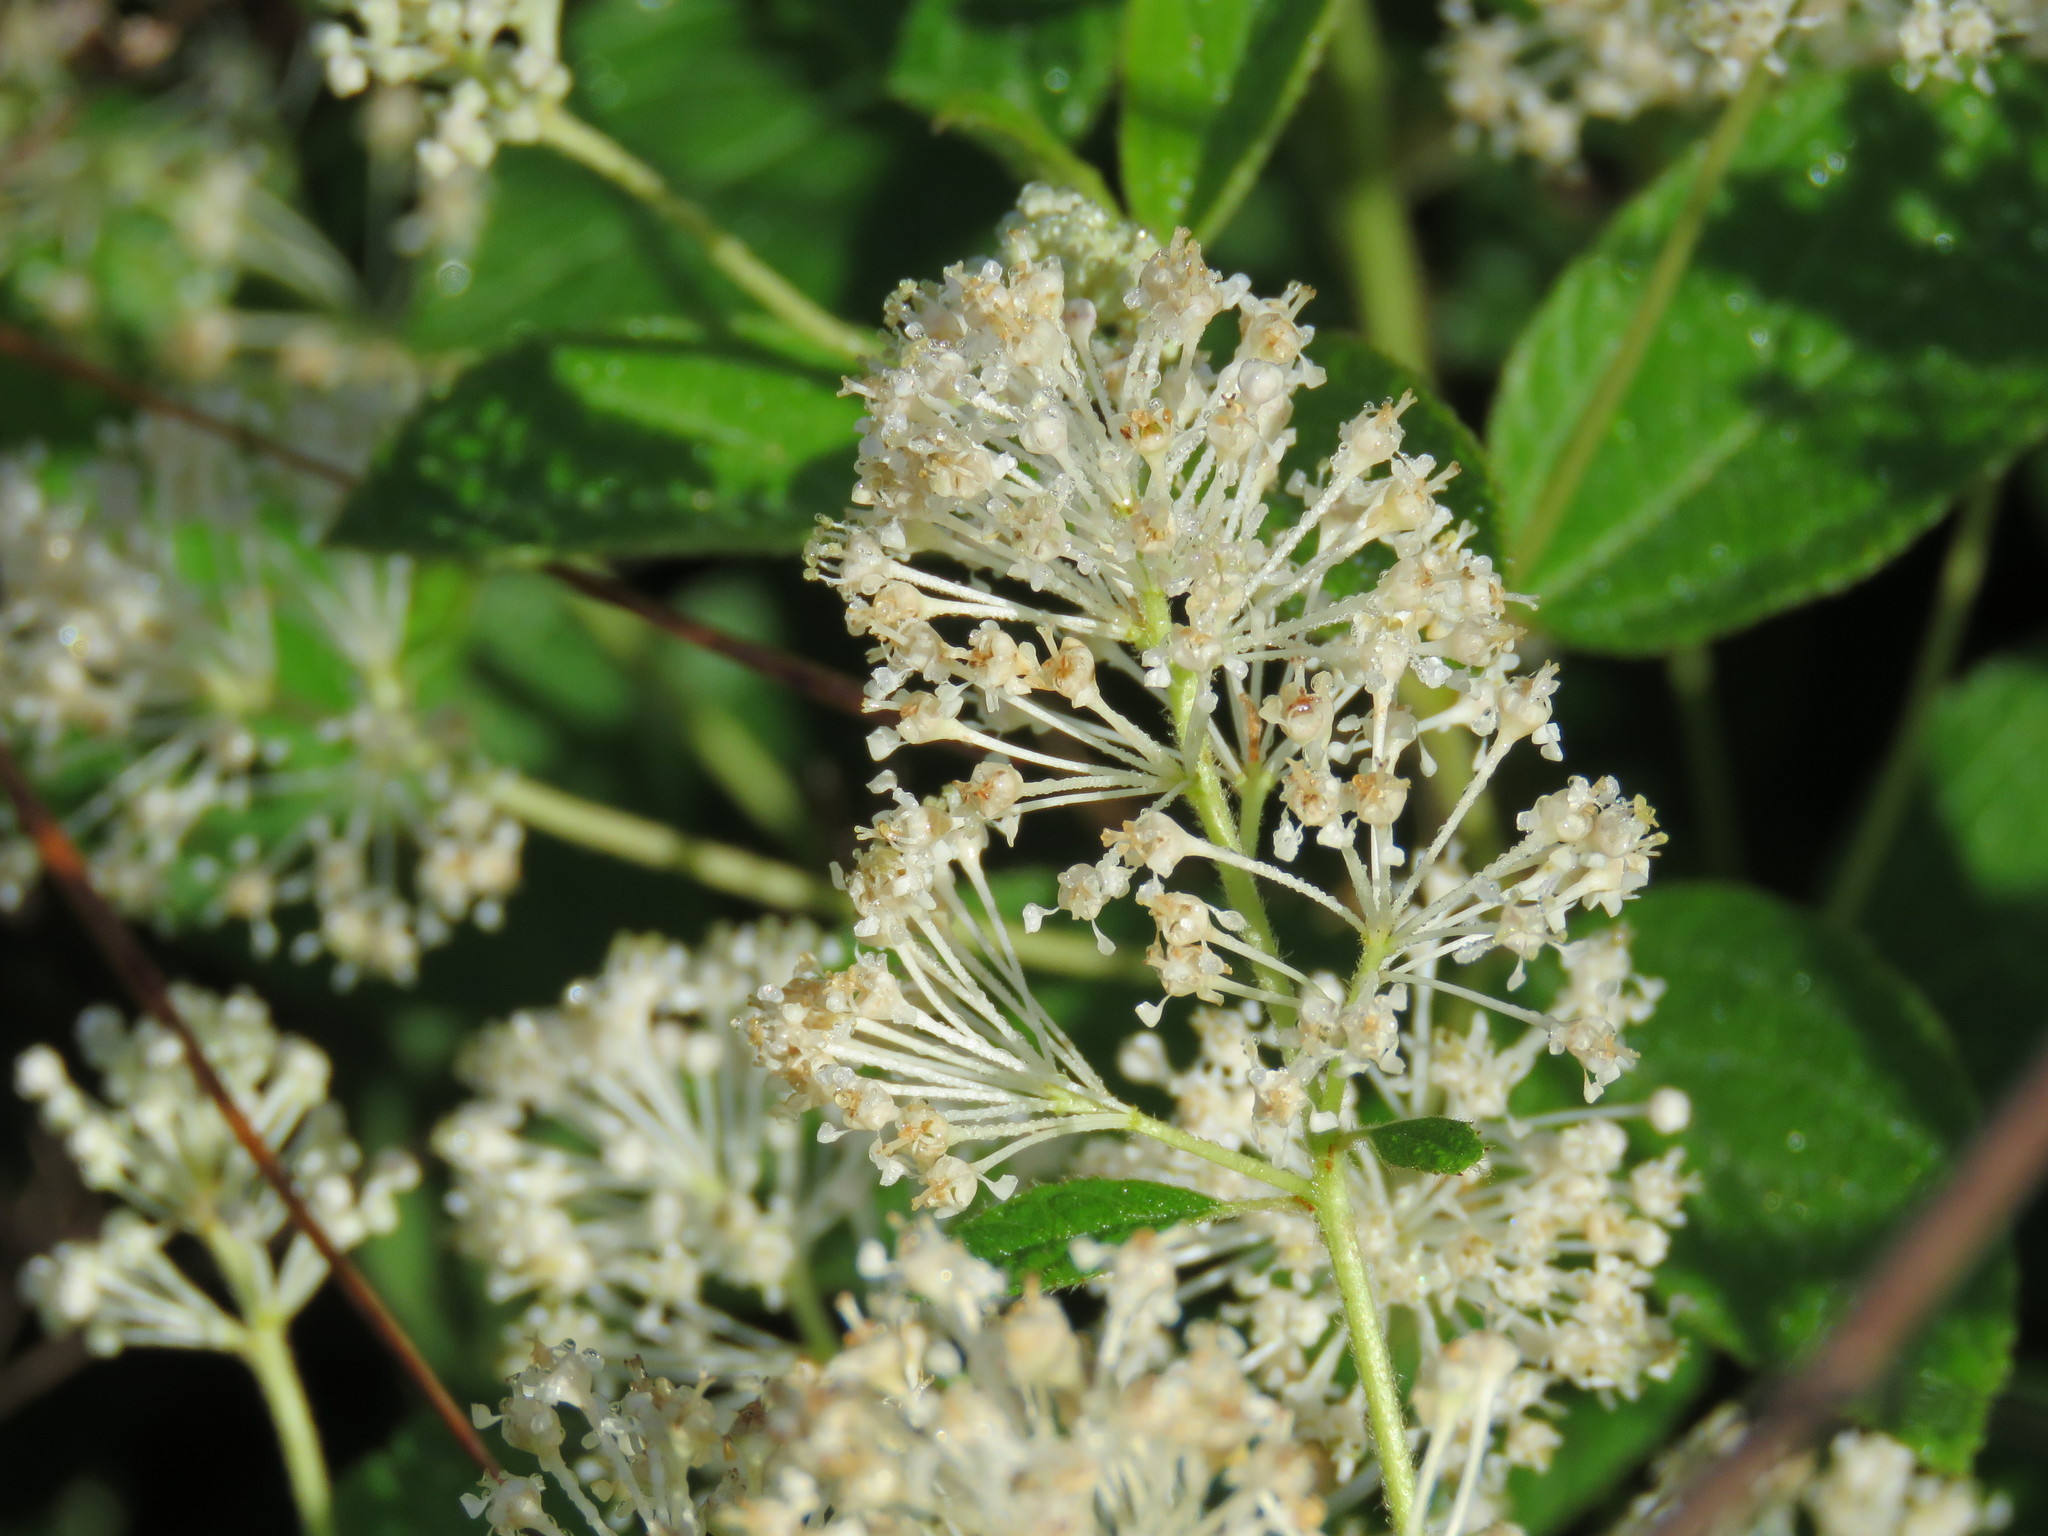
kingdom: Plantae
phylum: Tracheophyta
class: Magnoliopsida
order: Rosales
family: Rhamnaceae
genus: Ceanothus
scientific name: Ceanothus americanus
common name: Redroot
